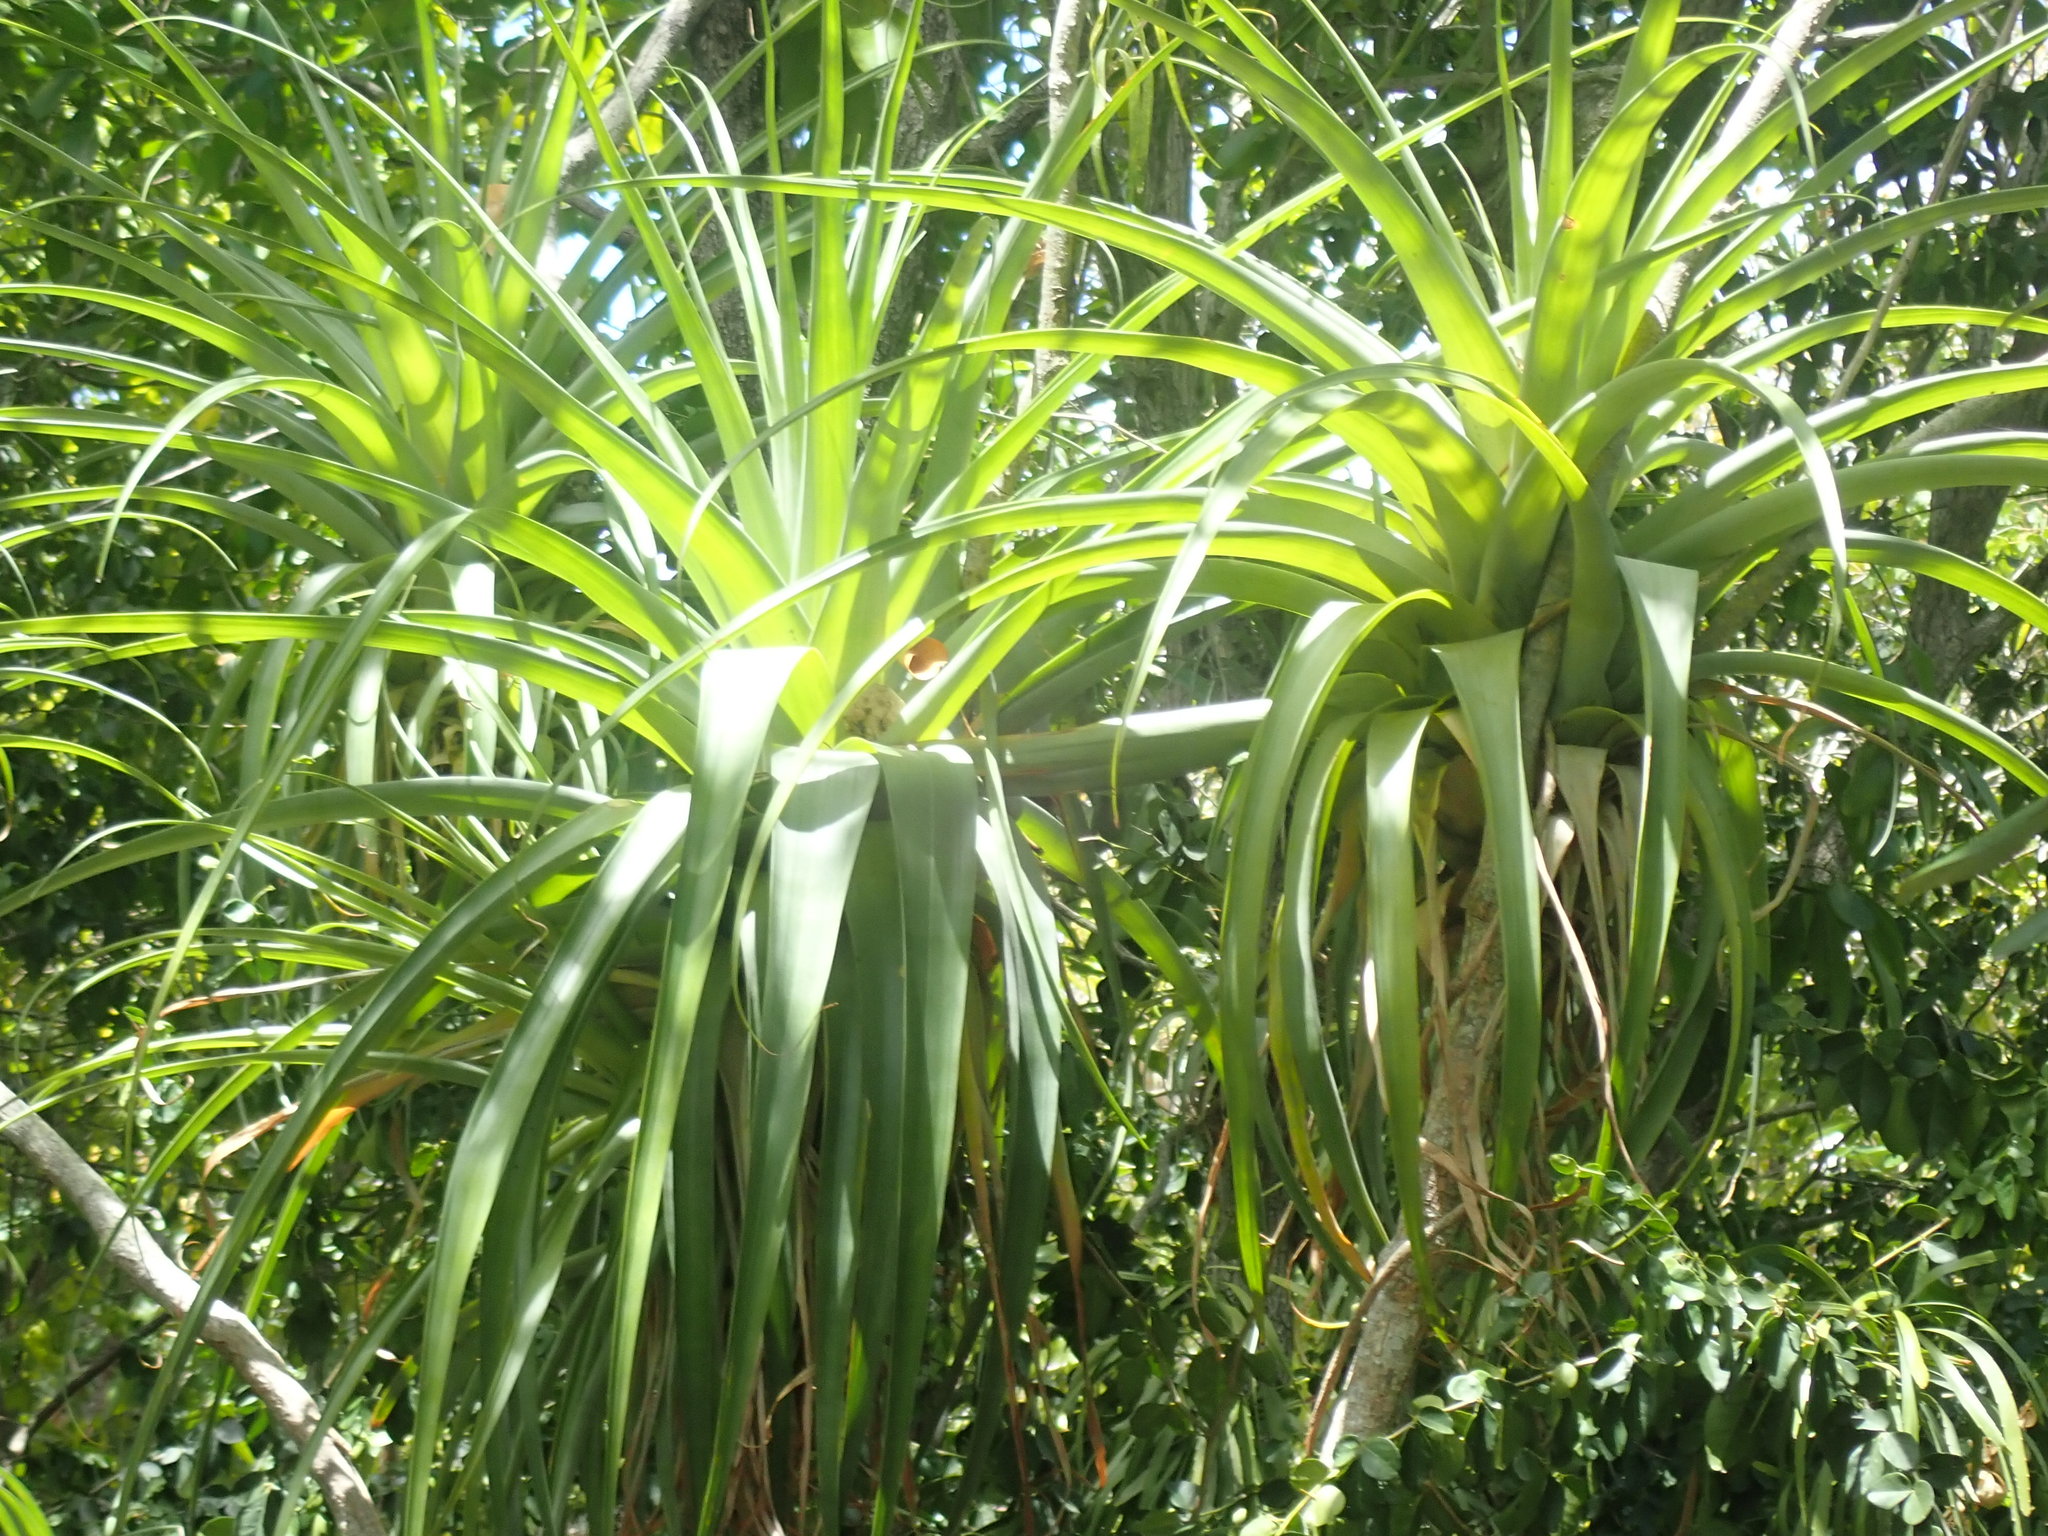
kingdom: Plantae
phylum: Tracheophyta
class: Liliopsida
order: Poales
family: Bromeliaceae
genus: Tillandsia
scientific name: Tillandsia utriculata
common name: Wild pine
